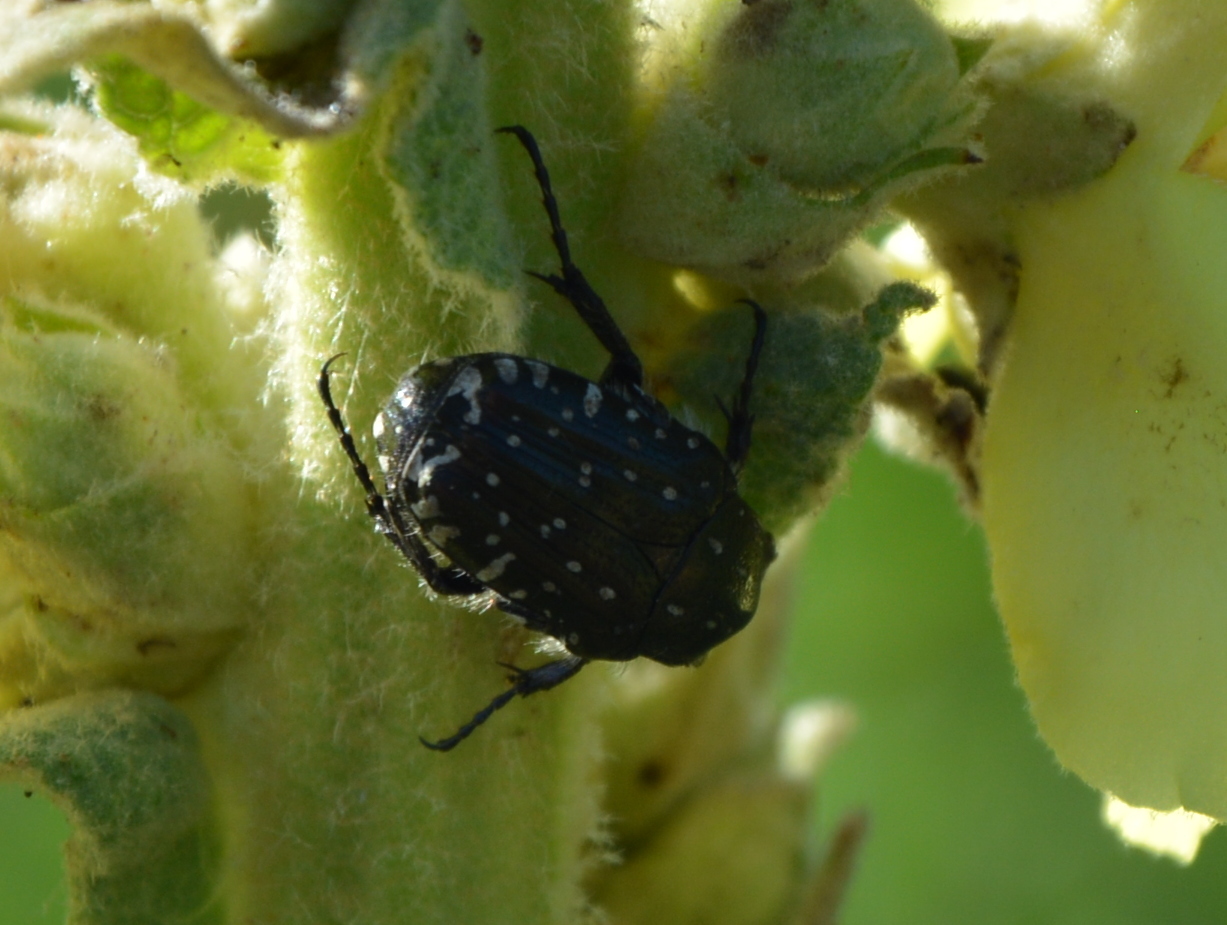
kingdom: Animalia
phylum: Arthropoda
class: Insecta
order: Coleoptera
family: Scarabaeidae
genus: Oxythyrea
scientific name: Oxythyrea funesta
